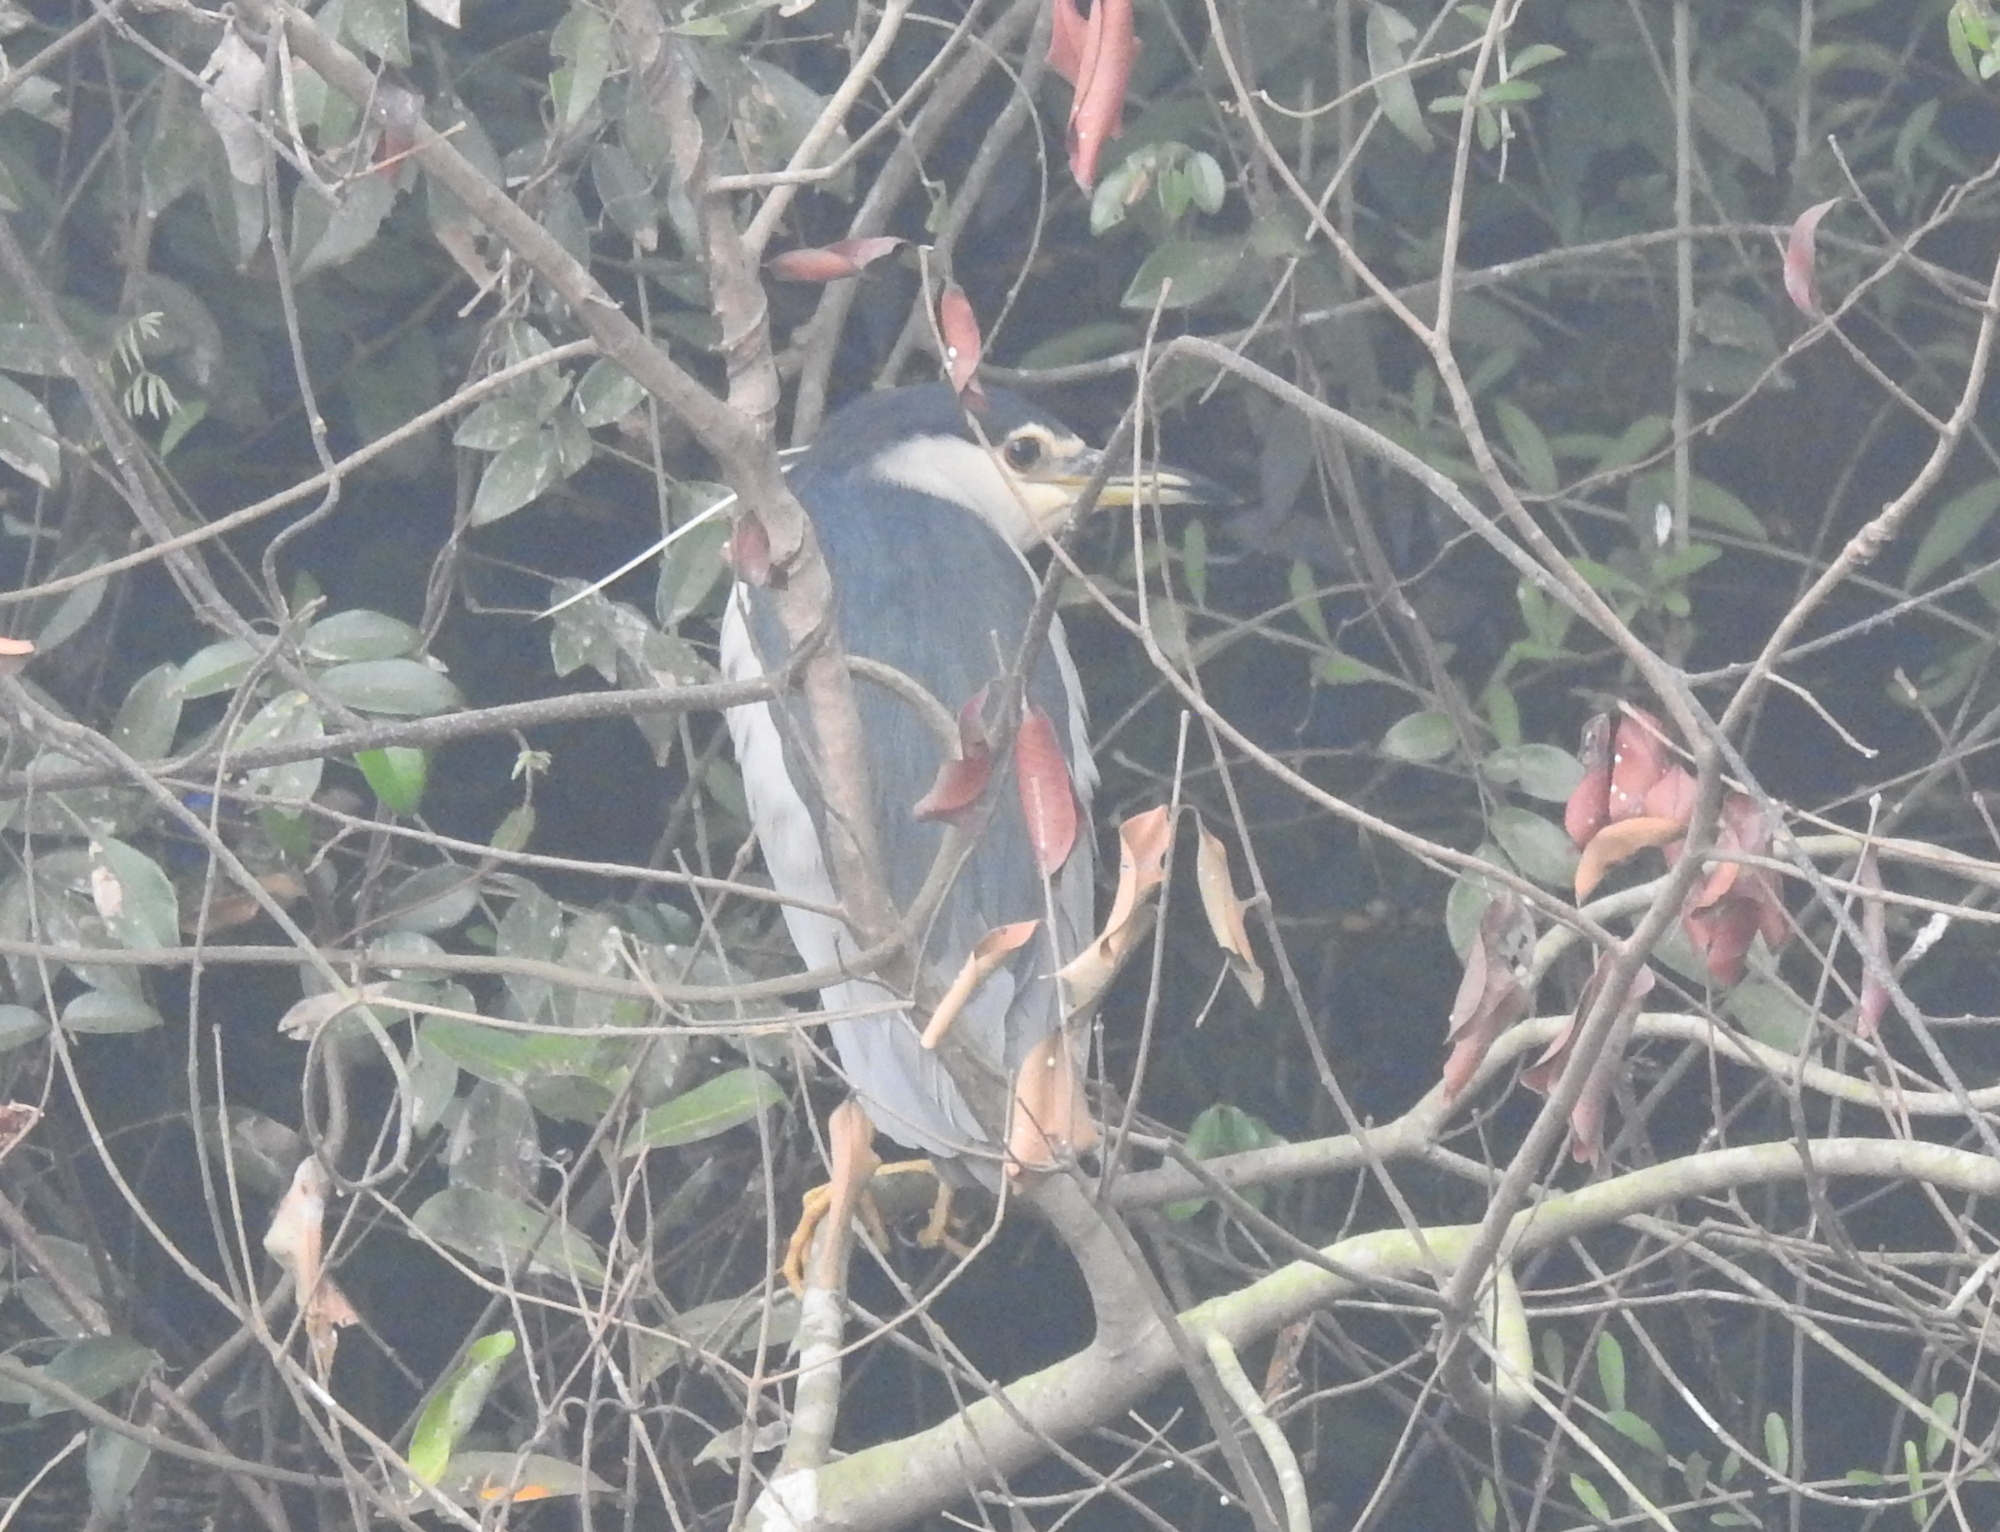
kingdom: Animalia
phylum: Chordata
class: Aves
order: Pelecaniformes
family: Ardeidae
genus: Nycticorax
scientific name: Nycticorax nycticorax
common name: Black-crowned night heron
